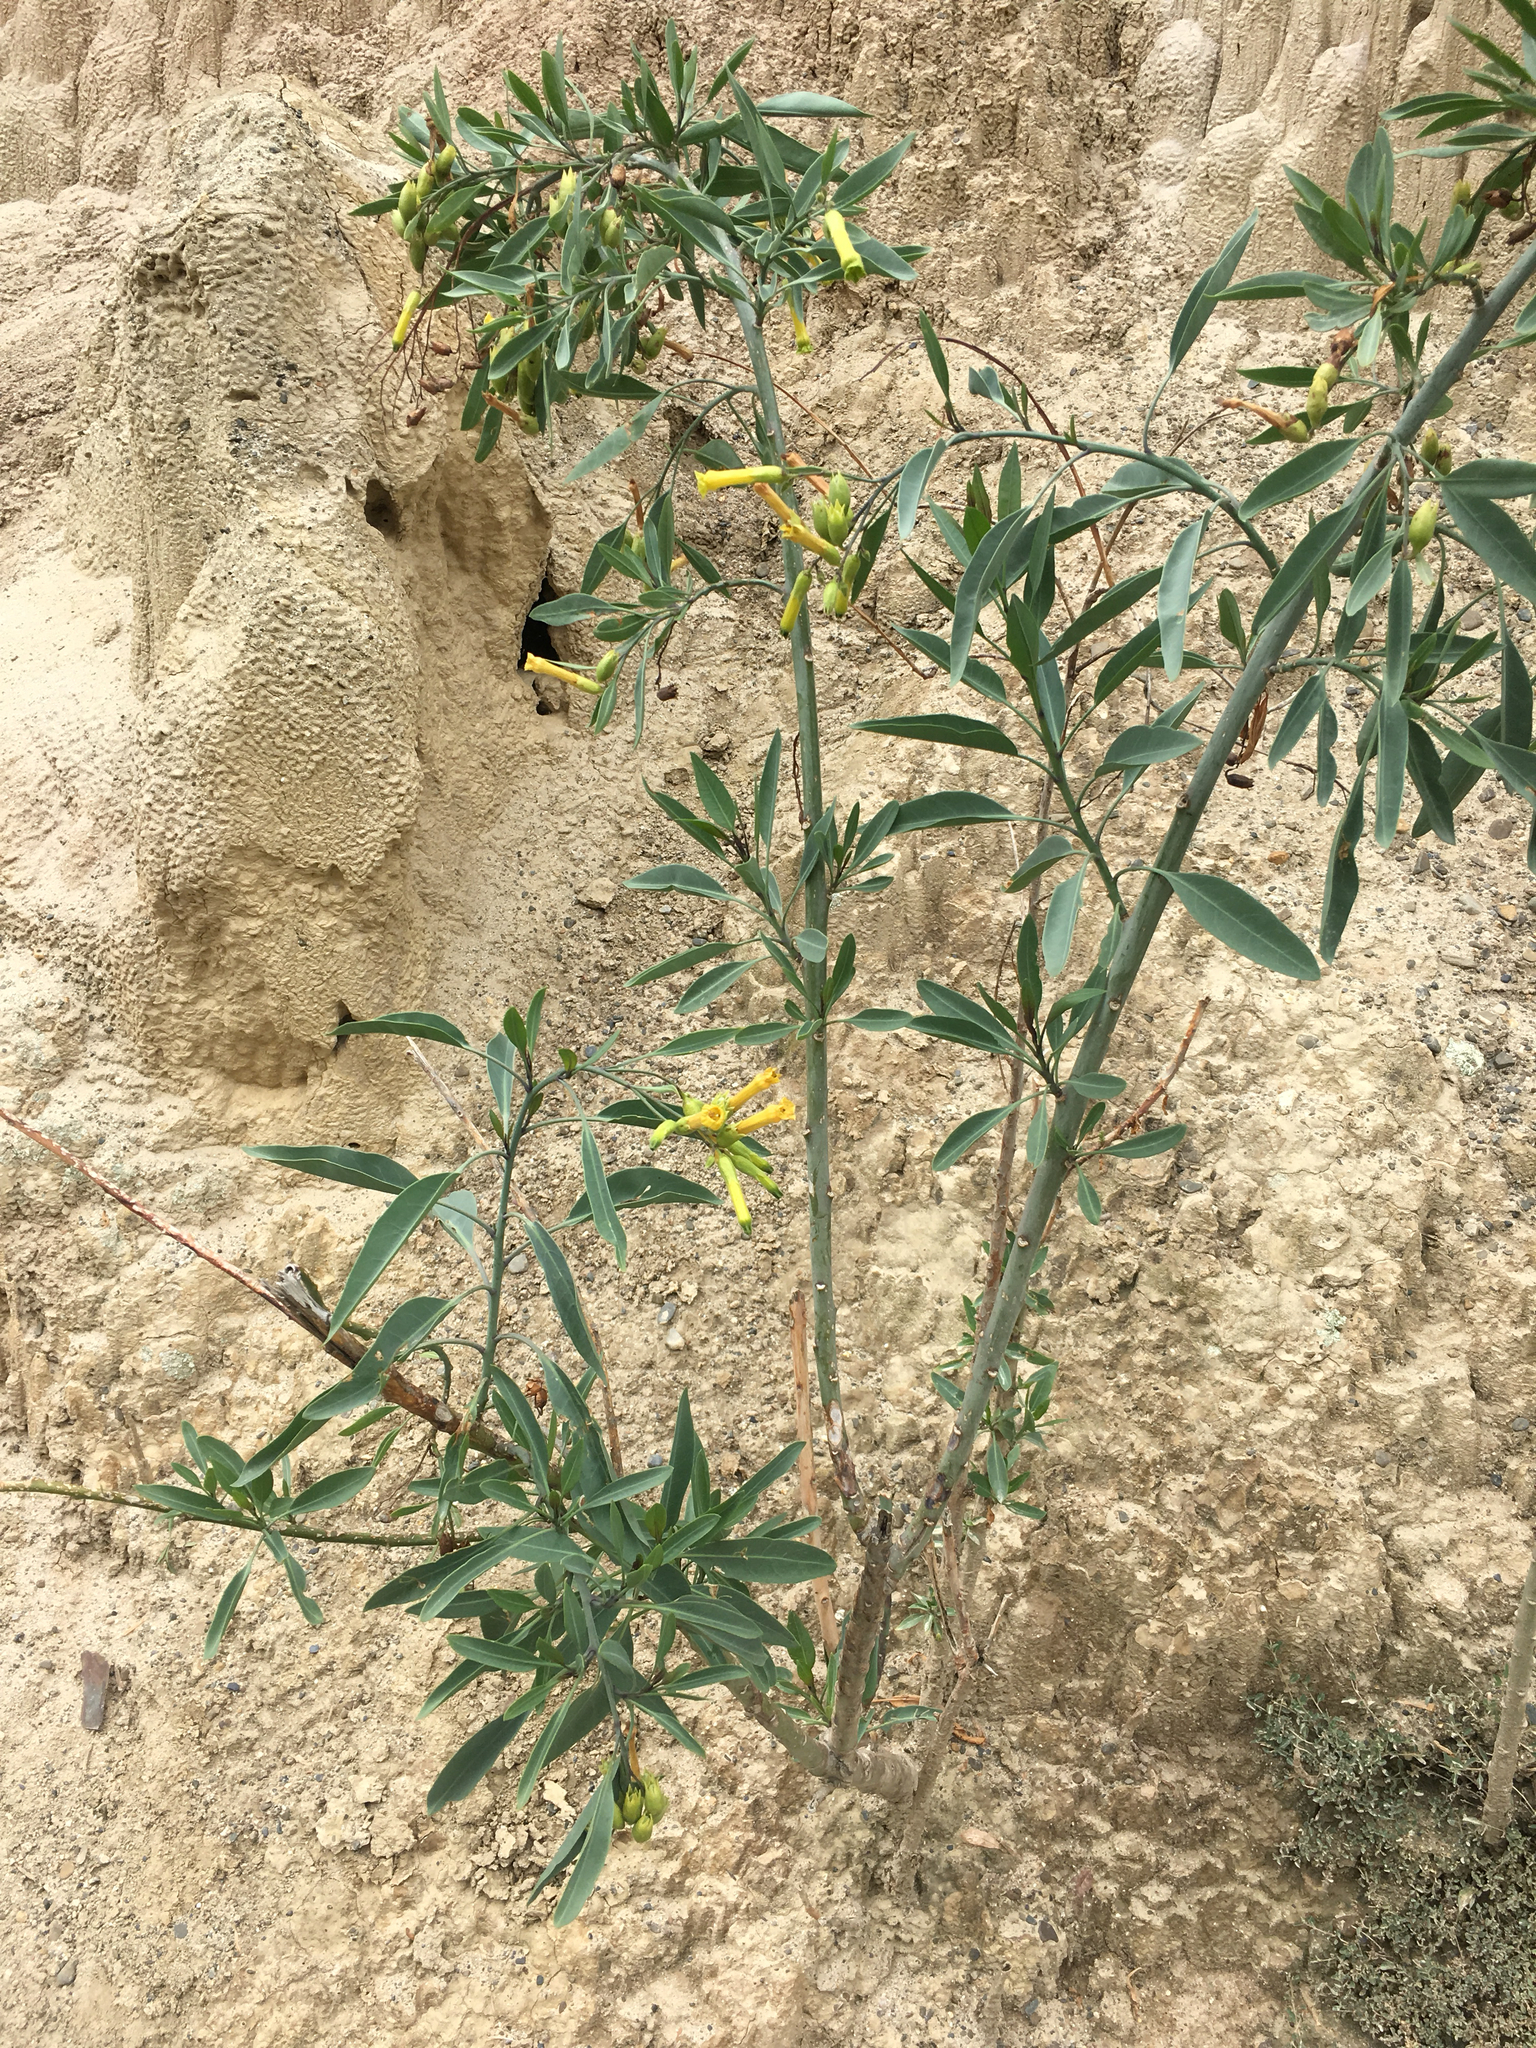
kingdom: Plantae
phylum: Tracheophyta
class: Magnoliopsida
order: Solanales
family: Solanaceae
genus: Nicotiana
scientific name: Nicotiana glauca
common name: Tree tobacco
